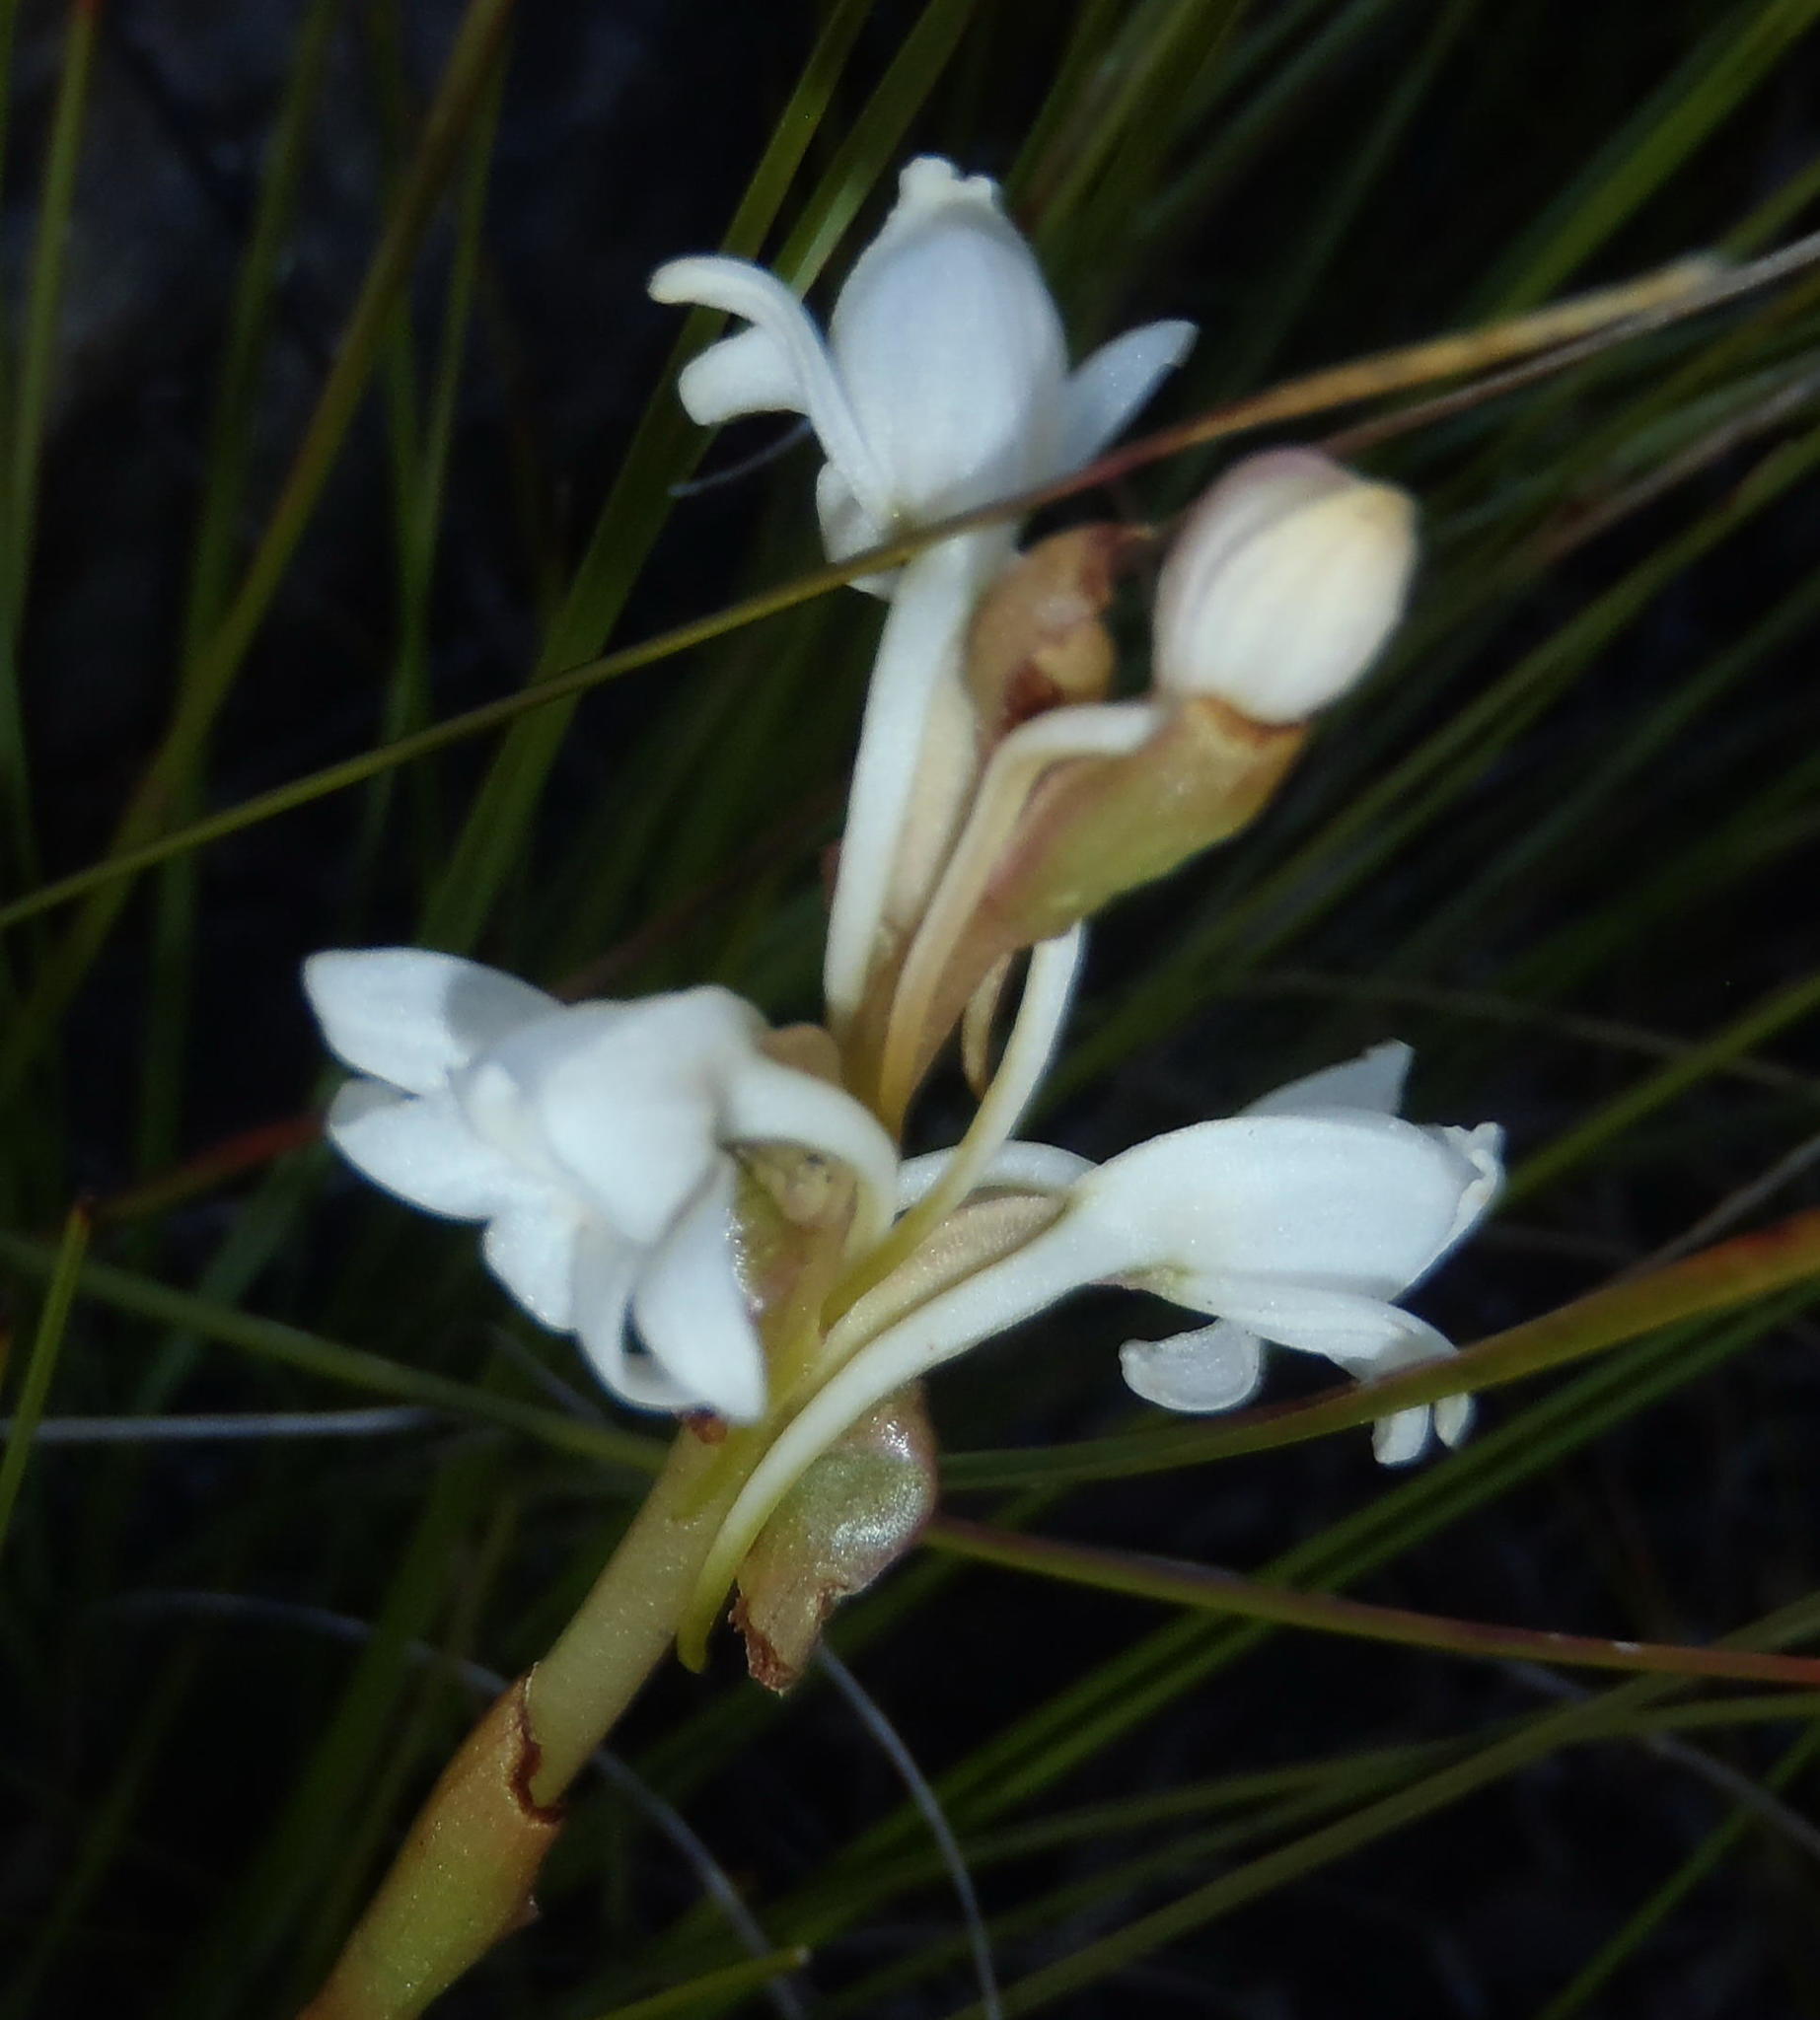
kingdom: Plantae
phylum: Tracheophyta
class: Liliopsida
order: Asparagales
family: Orchidaceae
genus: Satyrium
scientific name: Satyrium acuminatum
